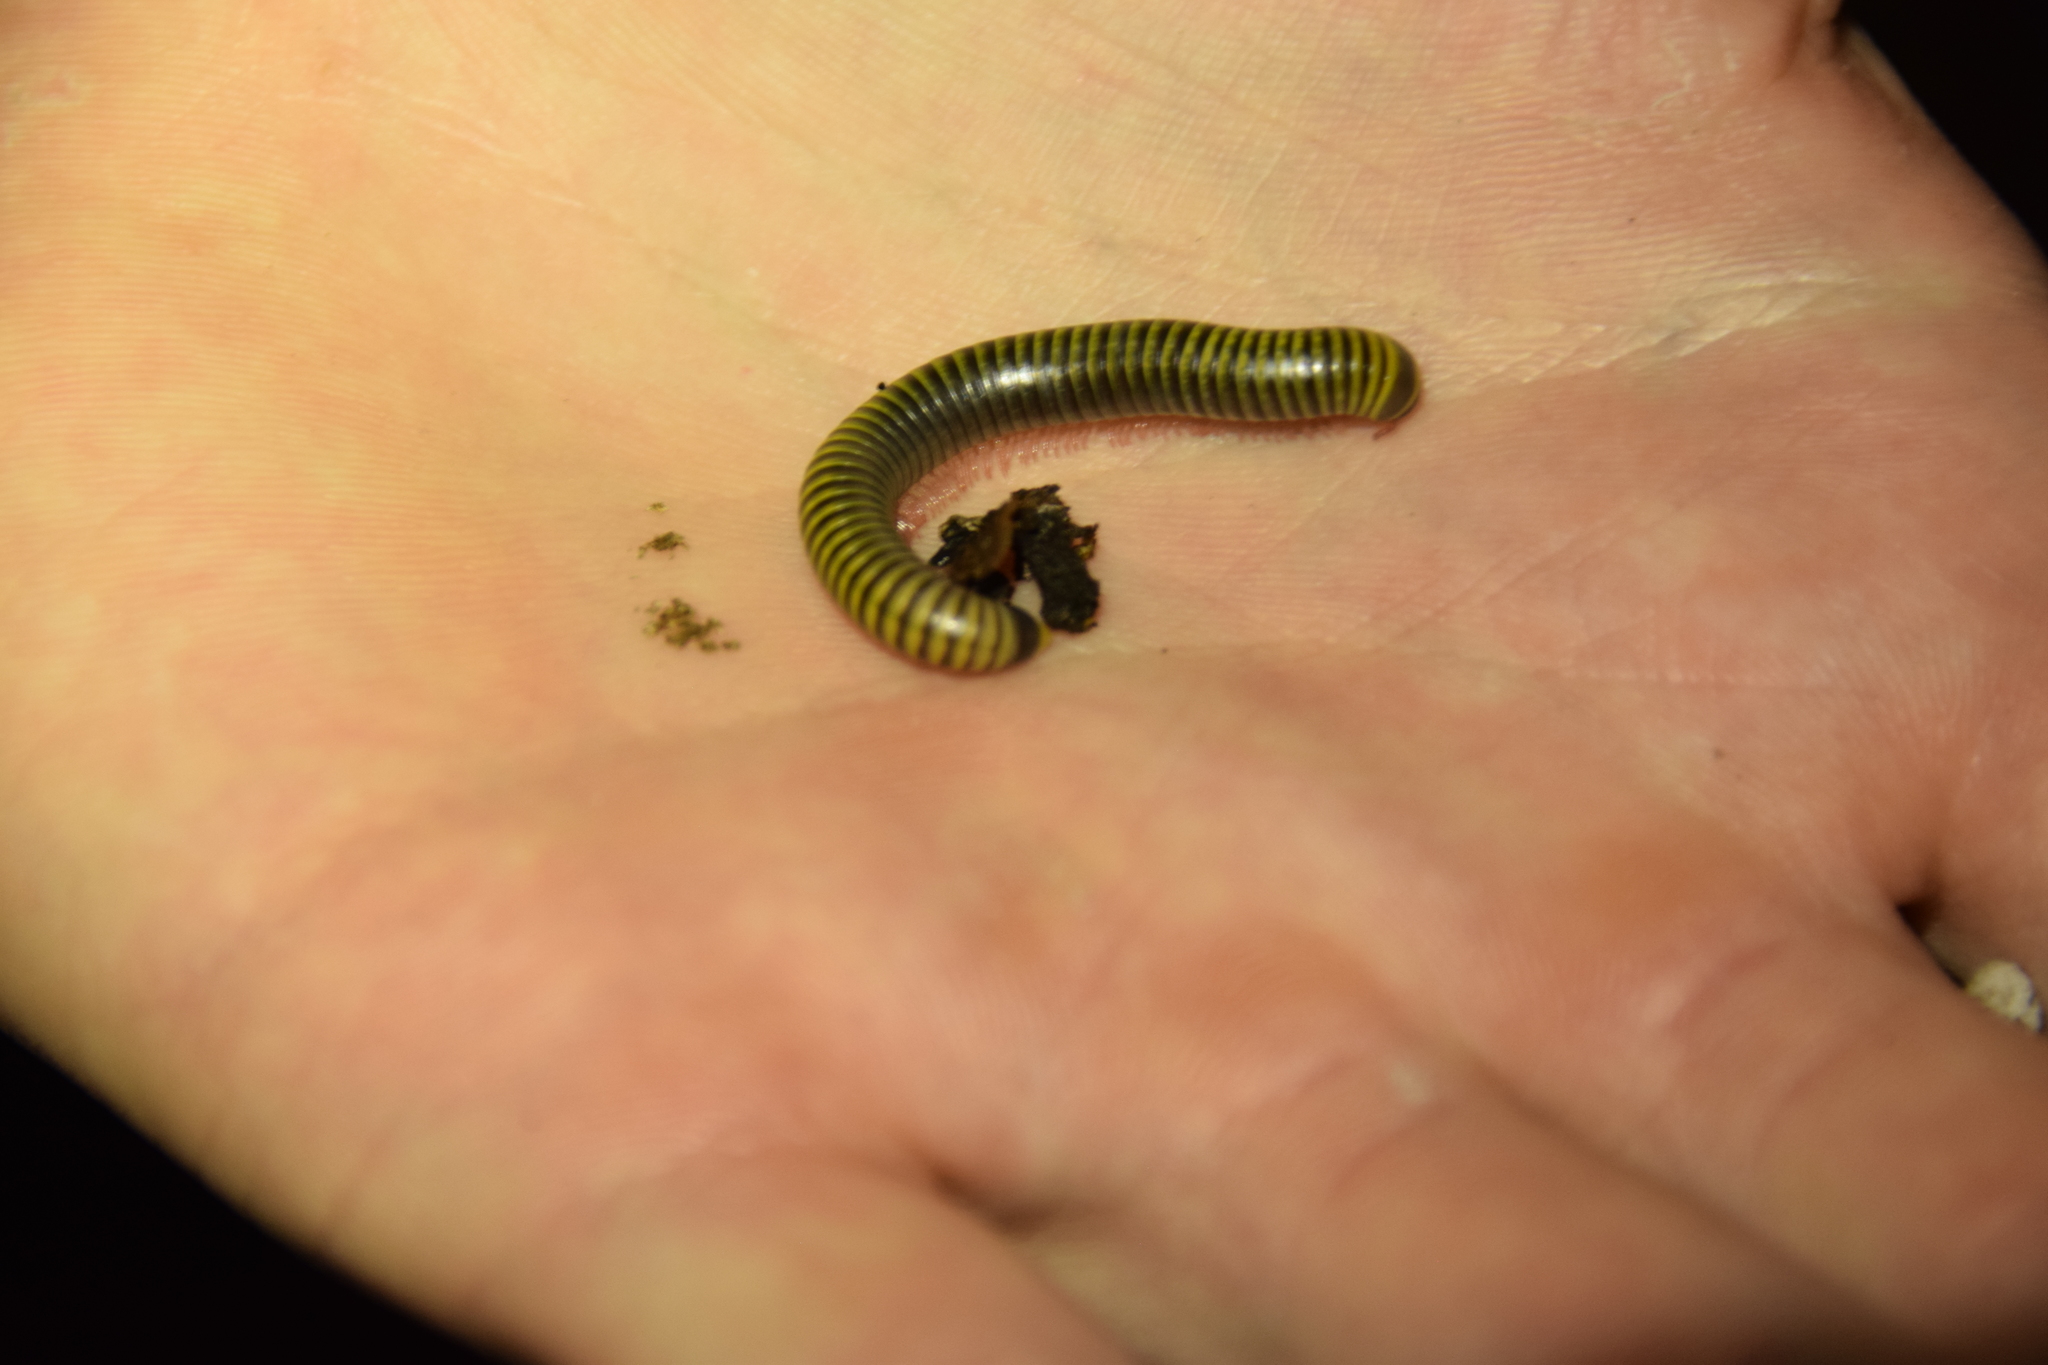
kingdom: Animalia
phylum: Arthropoda
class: Diplopoda
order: Spirobolida
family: Rhinocricidae
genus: Anadenobolus
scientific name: Anadenobolus monilicornis
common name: Caribbean millipede
